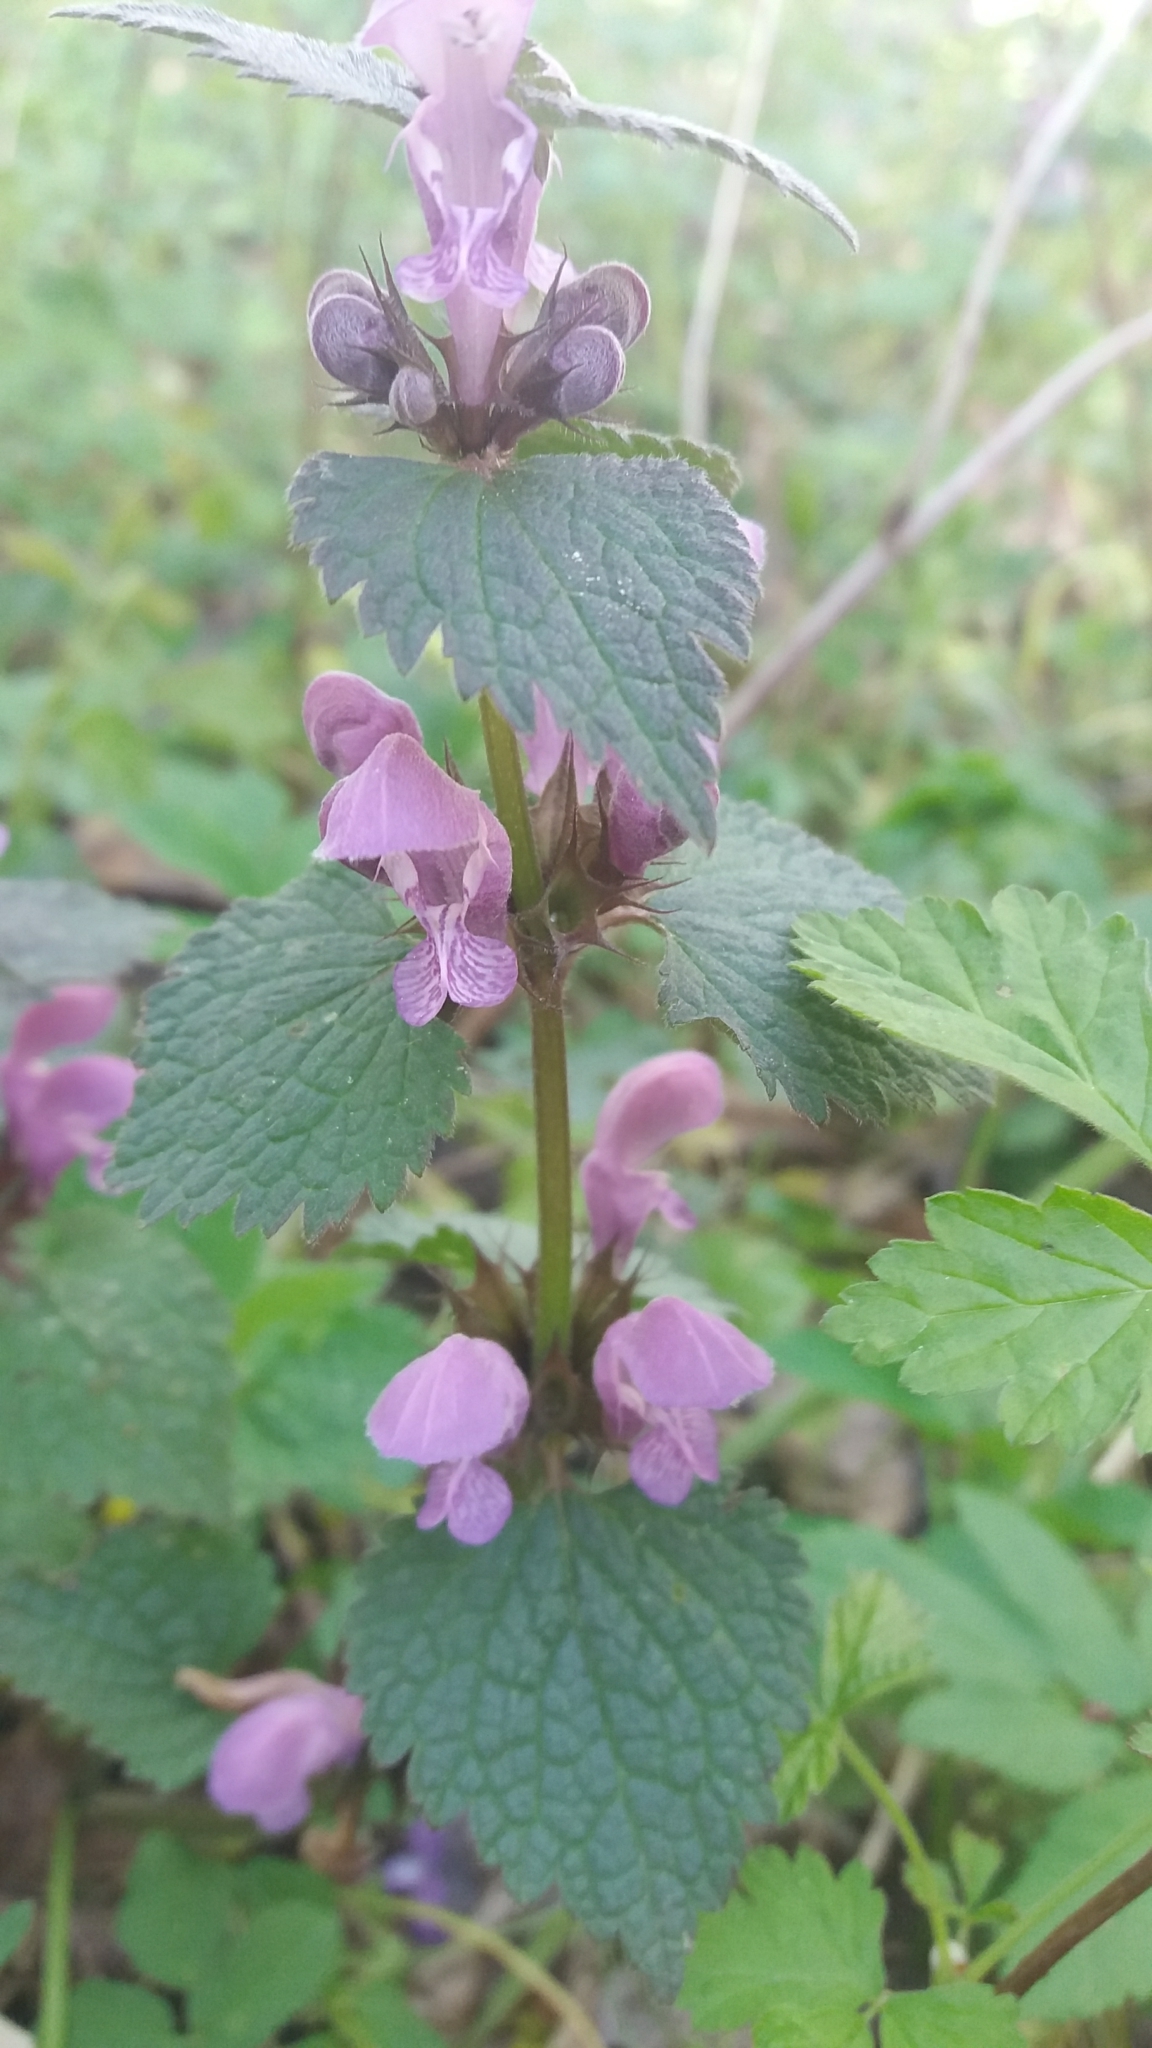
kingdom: Plantae
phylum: Tracheophyta
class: Magnoliopsida
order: Lamiales
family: Lamiaceae
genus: Lamium
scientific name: Lamium maculatum
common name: Spotted dead-nettle
